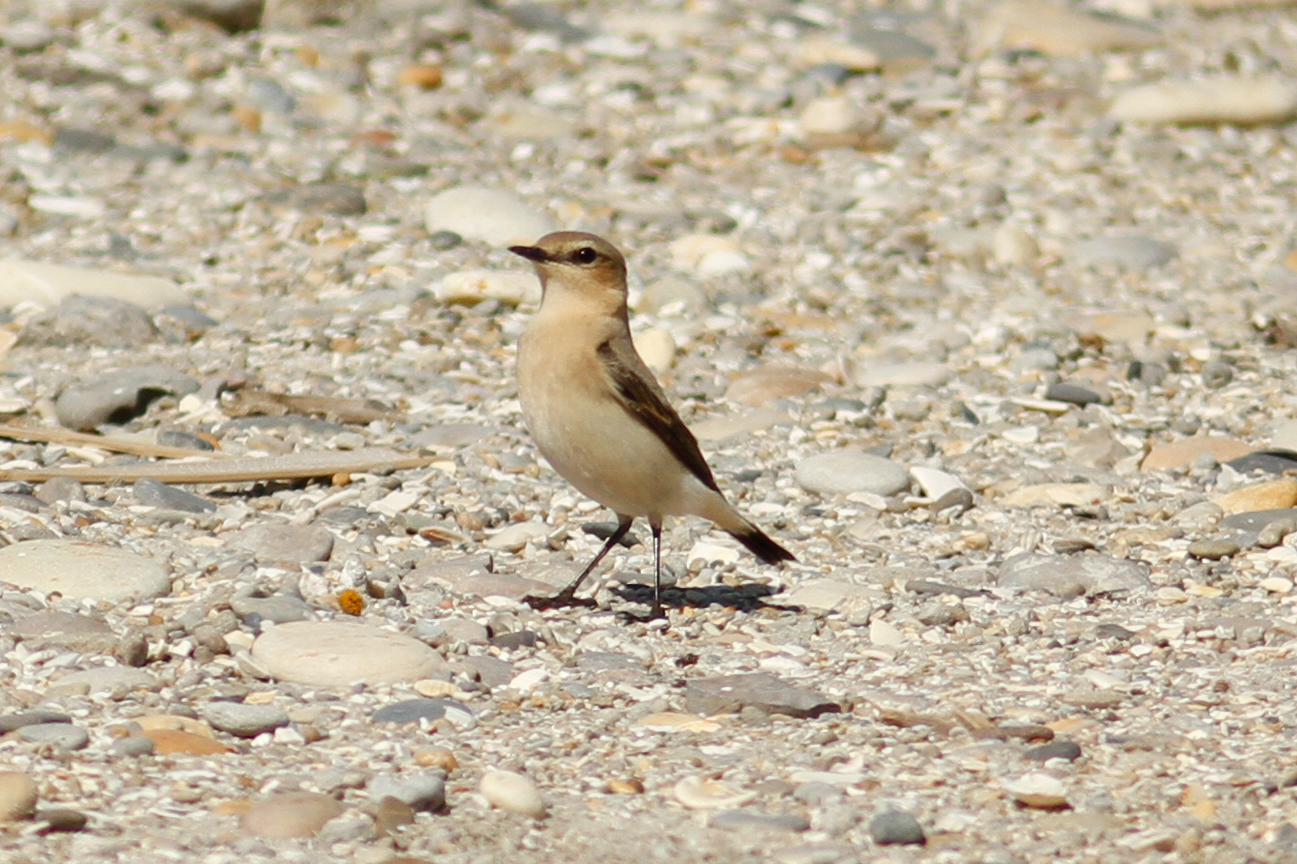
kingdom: Animalia
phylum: Chordata
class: Aves
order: Passeriformes
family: Muscicapidae
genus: Oenanthe
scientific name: Oenanthe oenanthe
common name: Northern wheatear
